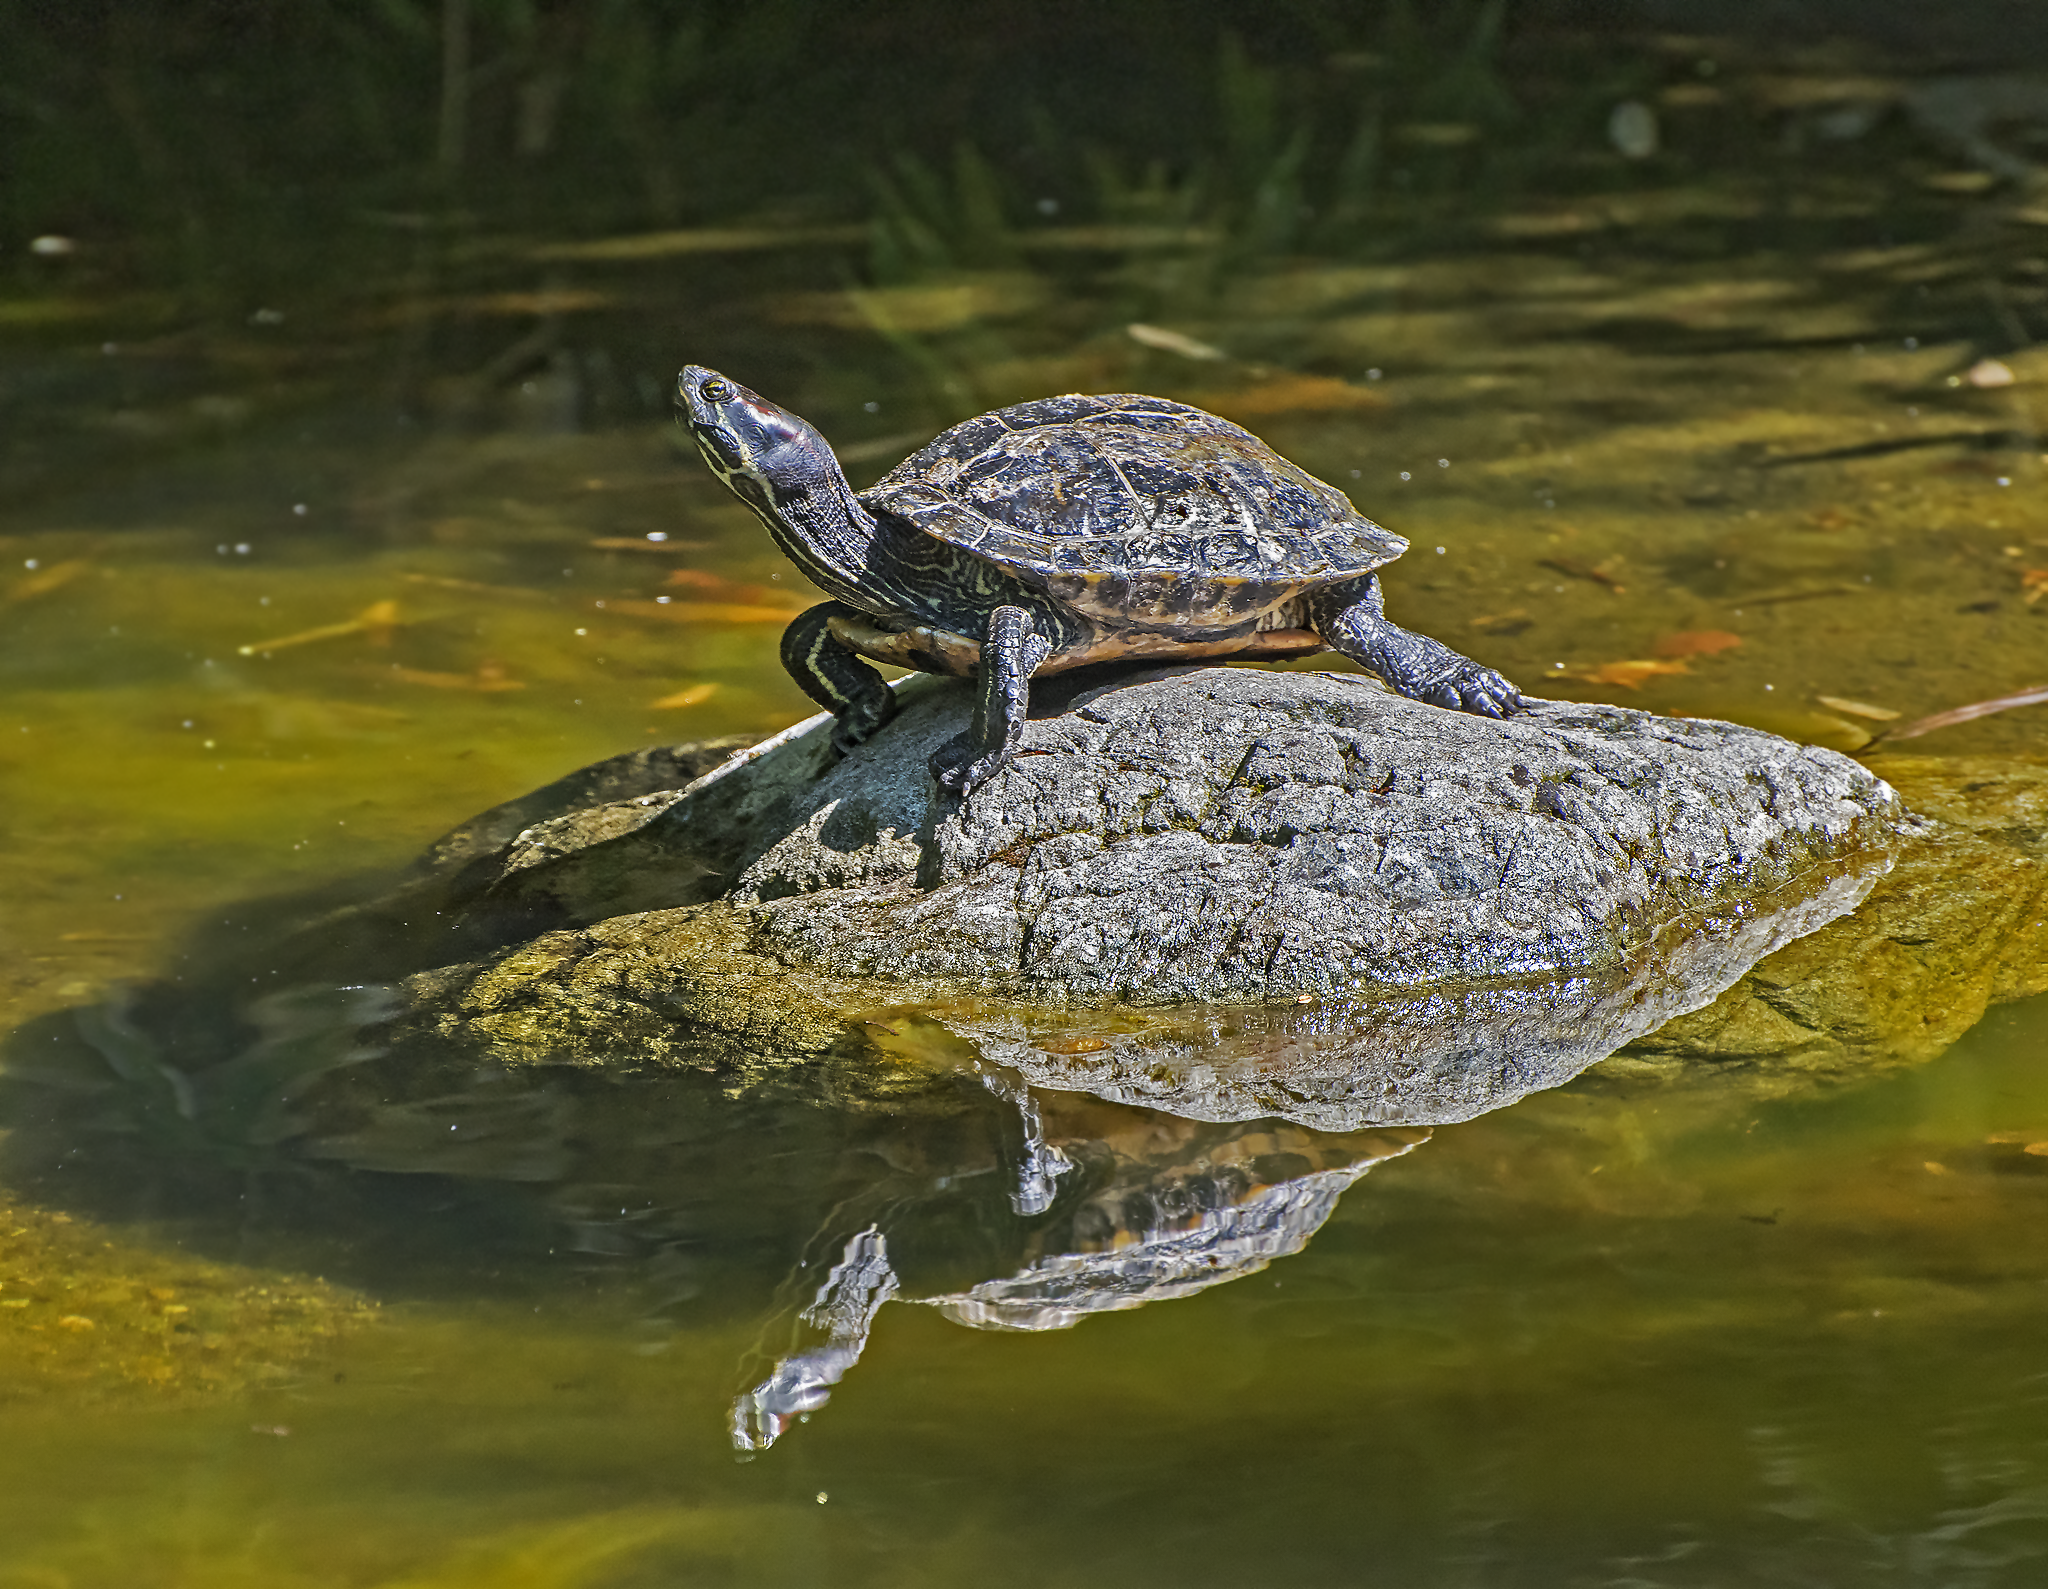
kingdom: Animalia
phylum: Chordata
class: Testudines
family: Emydidae
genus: Trachemys
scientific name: Trachemys scripta
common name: Slider
